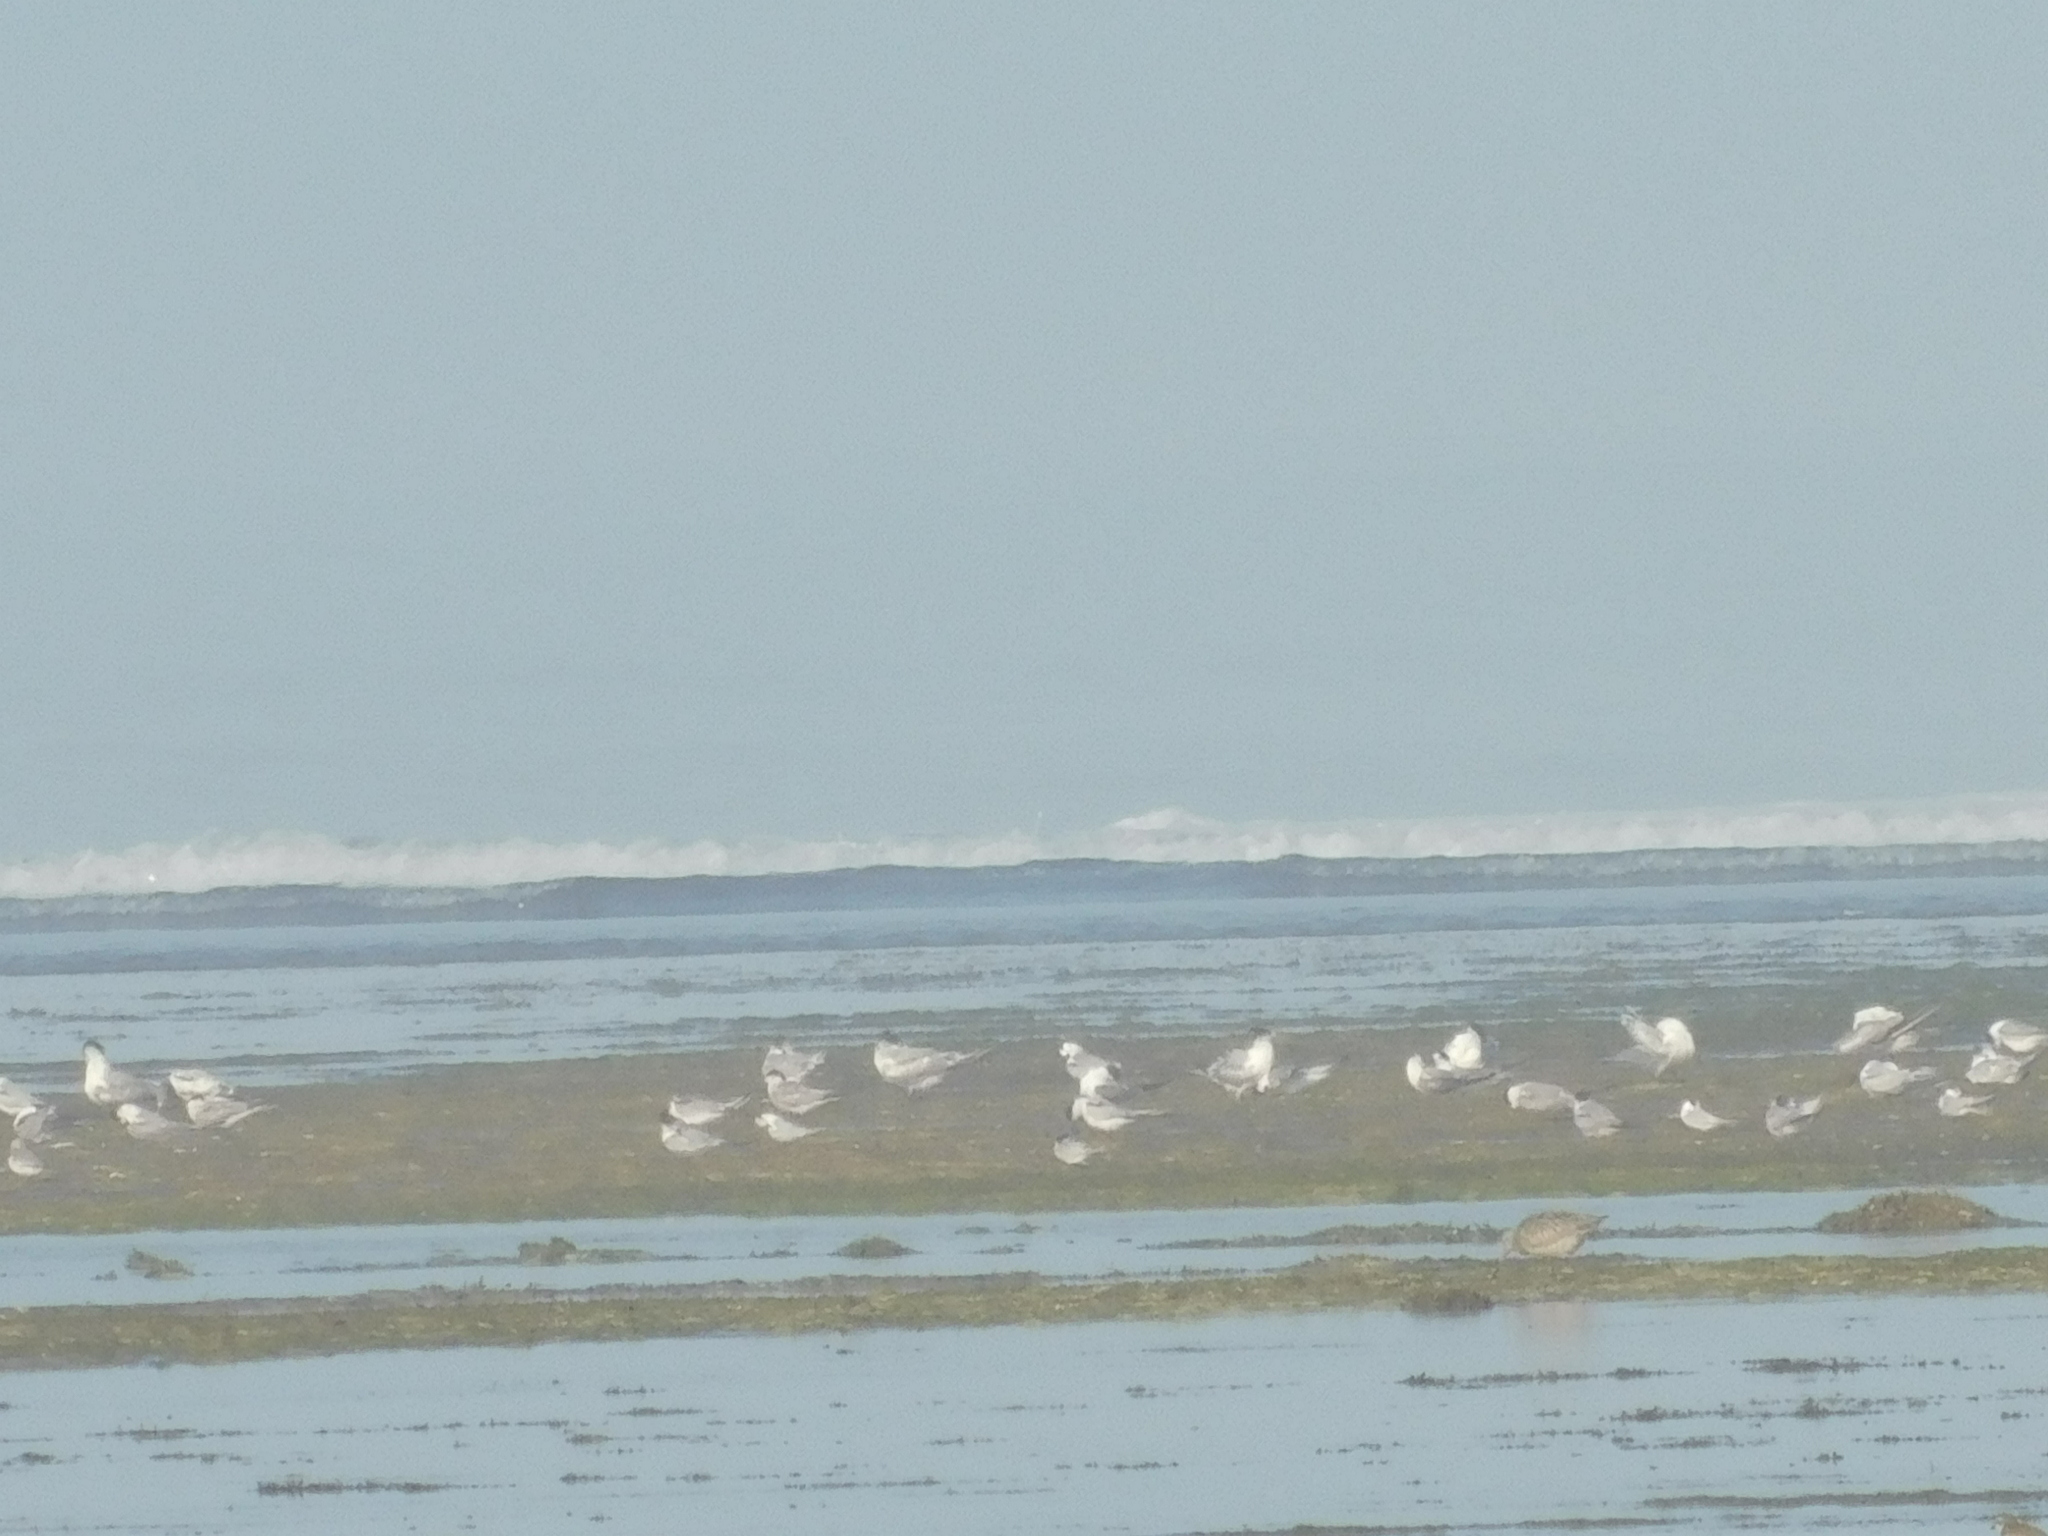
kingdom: Animalia
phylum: Chordata
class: Aves
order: Charadriiformes
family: Laridae
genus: Thalasseus
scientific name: Thalasseus bergii
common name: Greater crested tern
